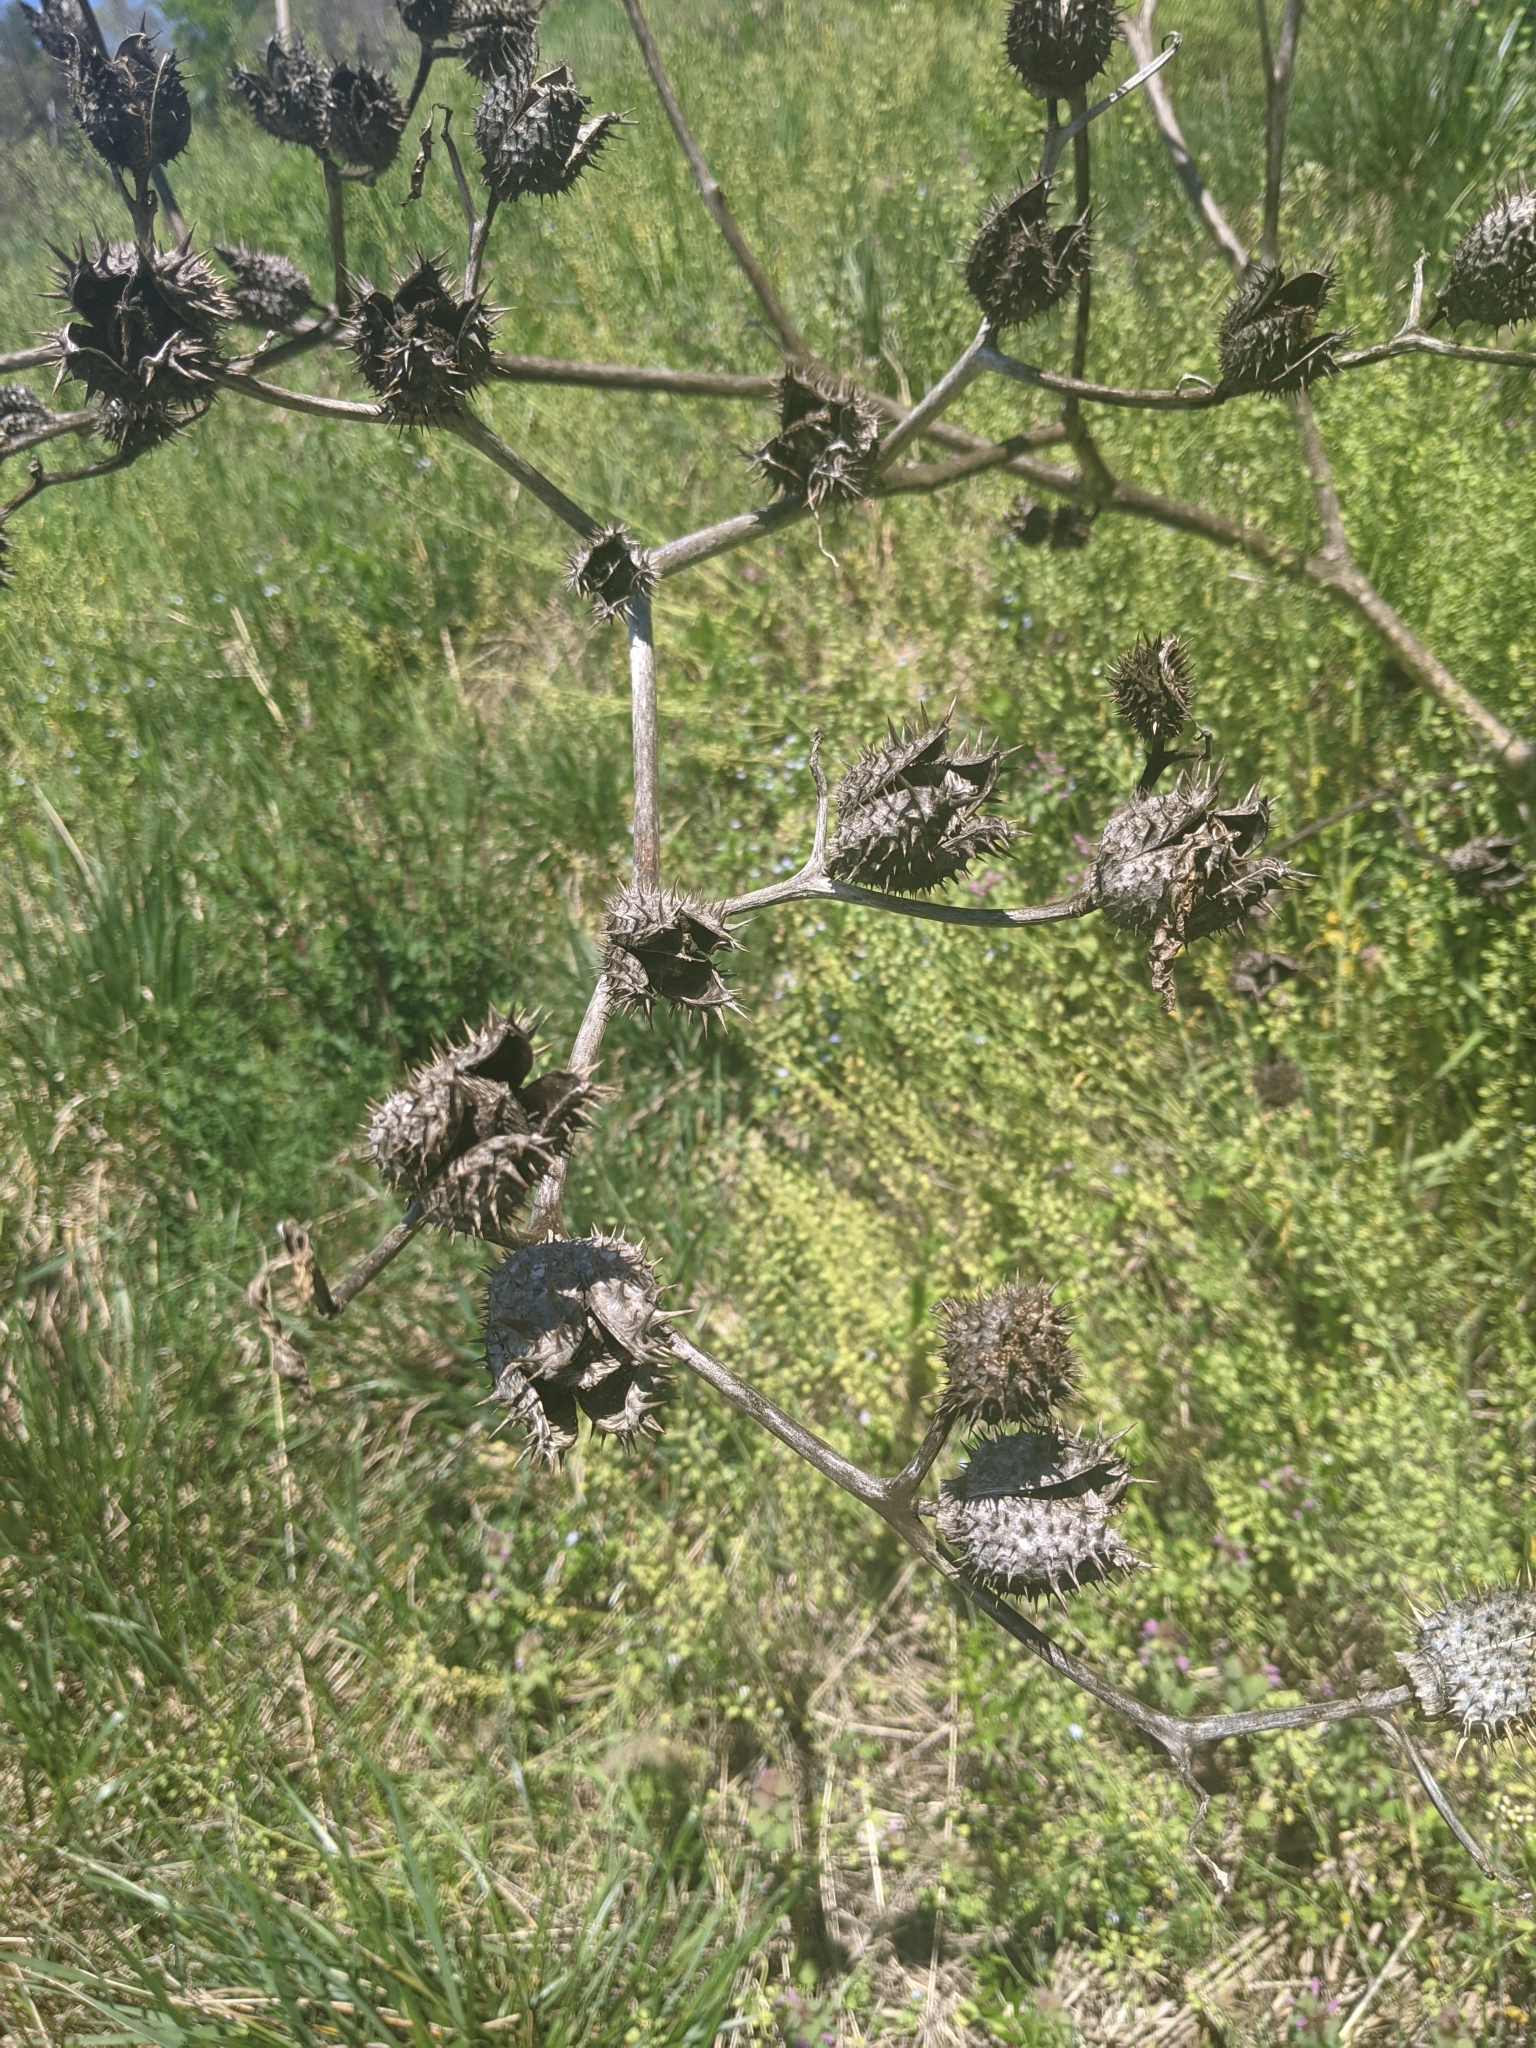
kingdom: Plantae
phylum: Tracheophyta
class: Magnoliopsida
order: Solanales
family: Solanaceae
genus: Datura
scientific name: Datura stramonium
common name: Thorn-apple
